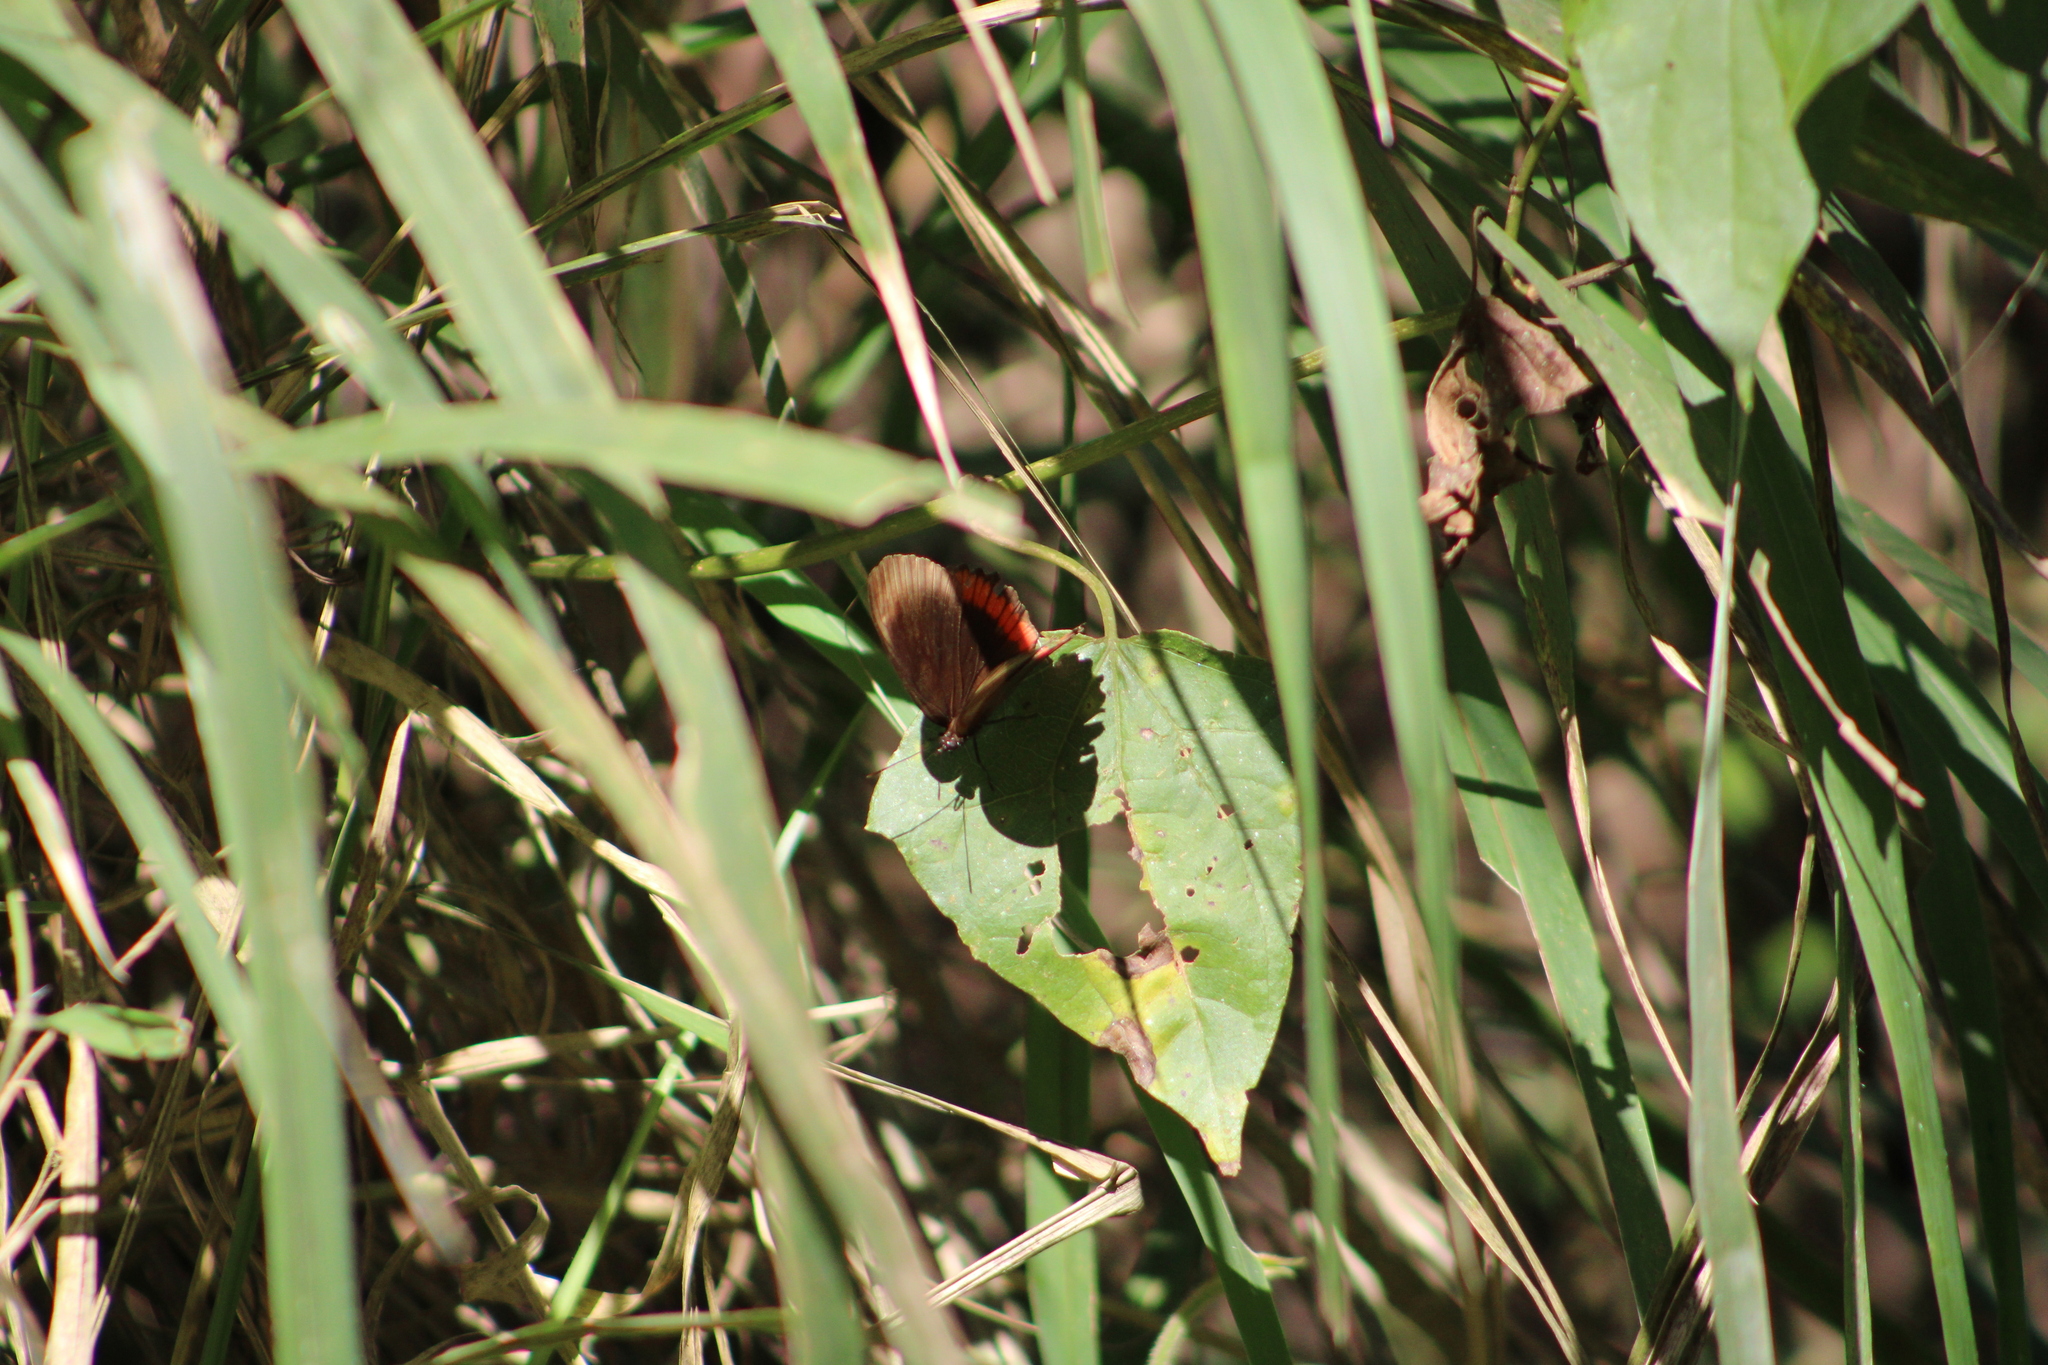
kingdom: Animalia
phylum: Arthropoda
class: Insecta
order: Lepidoptera
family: Sesiidae
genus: Sesia
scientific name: Sesia Biblis hyperia
